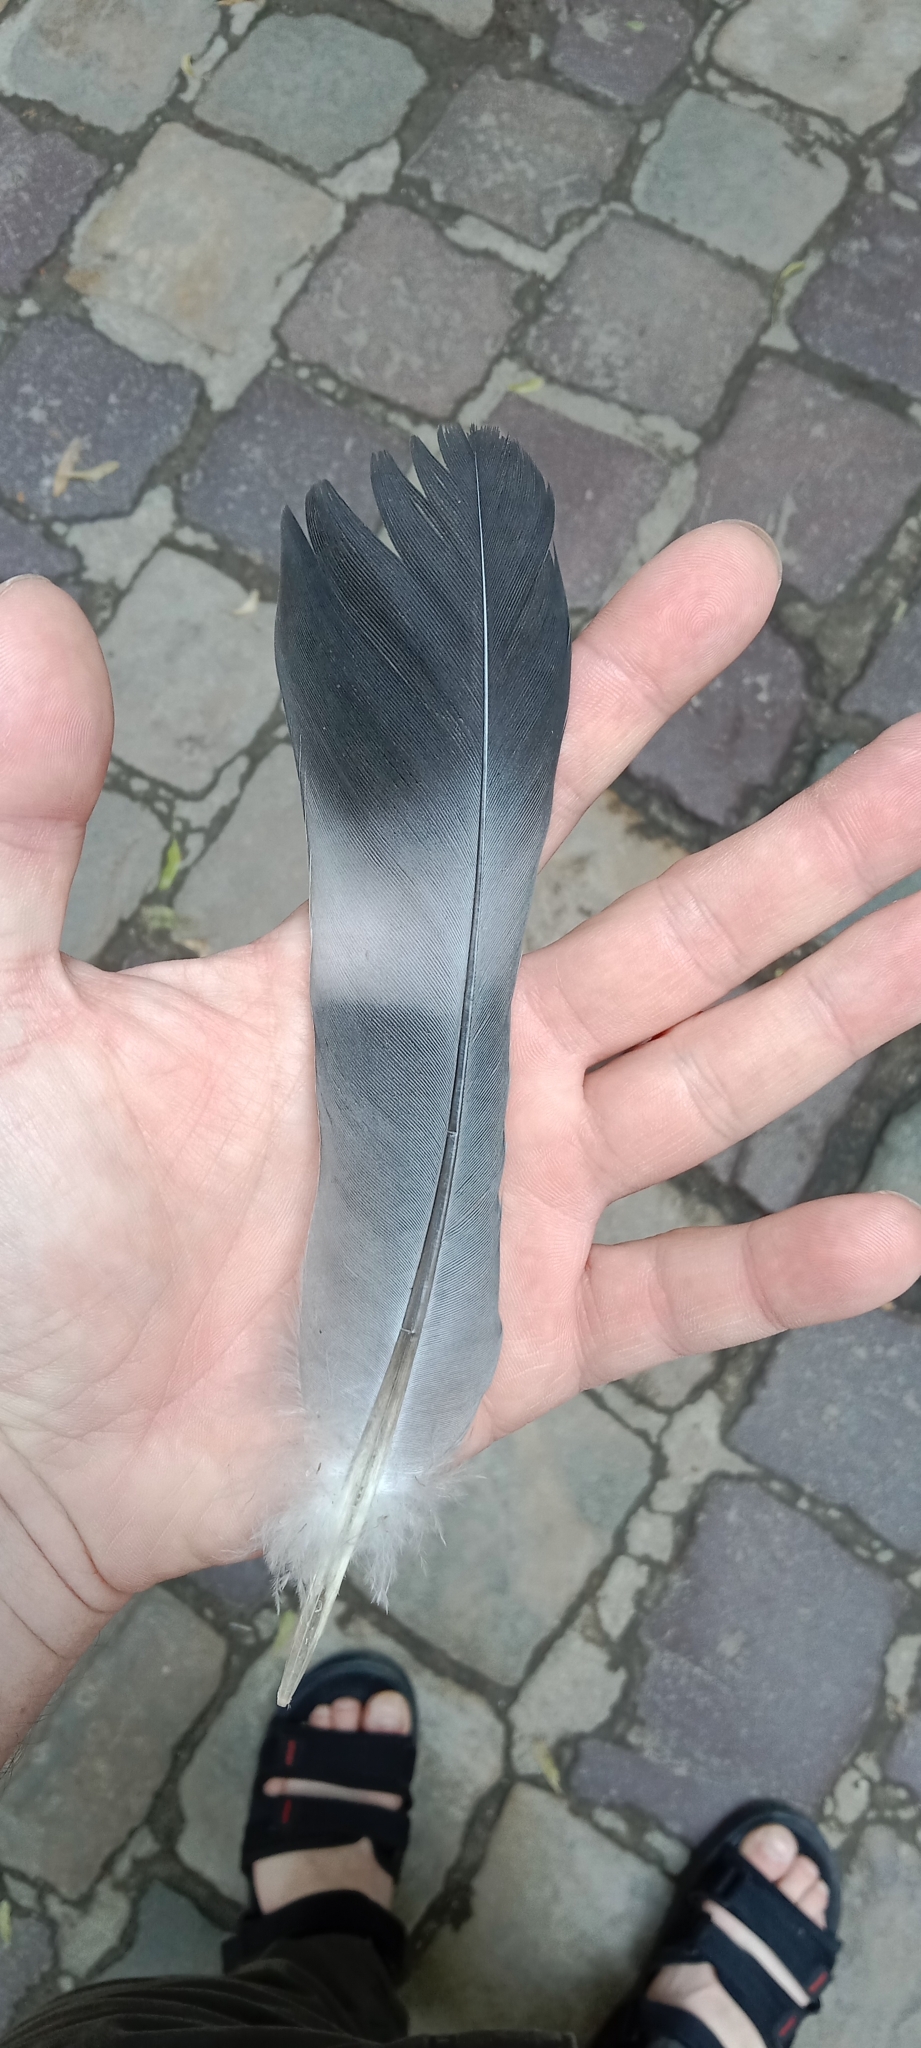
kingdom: Animalia
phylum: Chordata
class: Aves
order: Columbiformes
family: Columbidae
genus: Columba
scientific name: Columba palumbus
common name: Common wood pigeon
